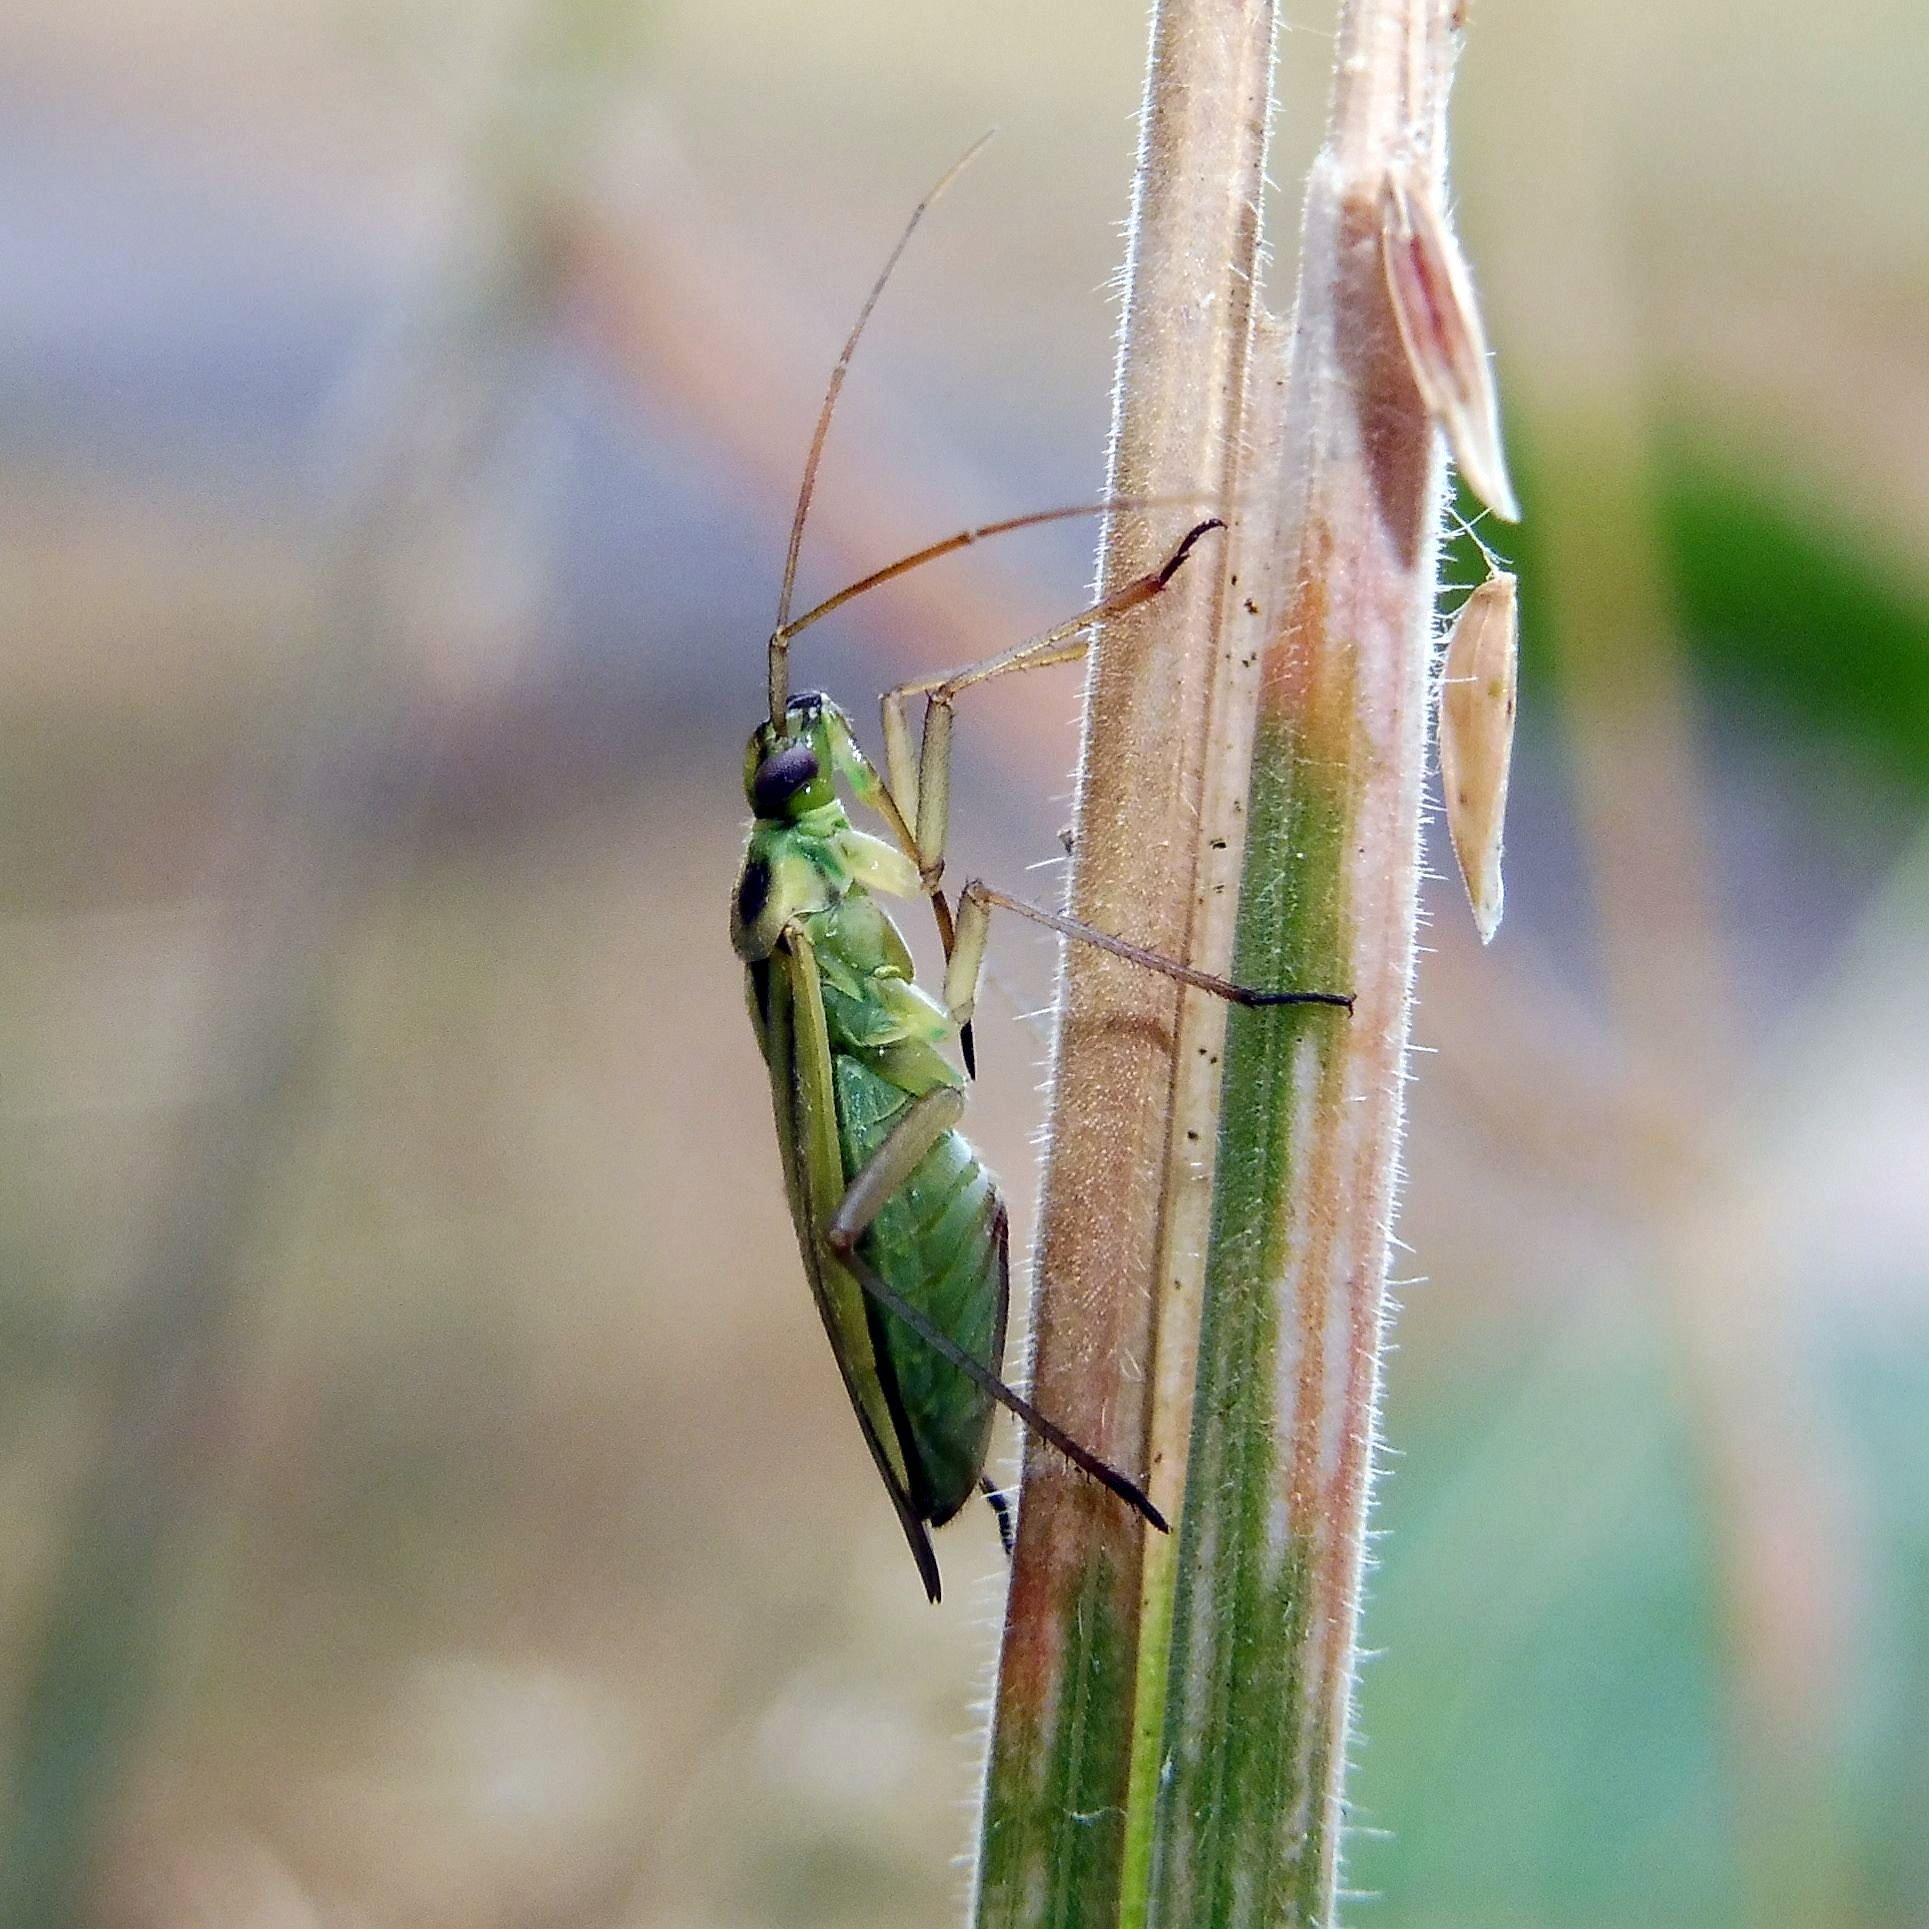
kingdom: Animalia
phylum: Arthropoda
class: Insecta
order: Hemiptera
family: Miridae
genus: Stenotus
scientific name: Stenotus binotatus
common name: Plant bug
